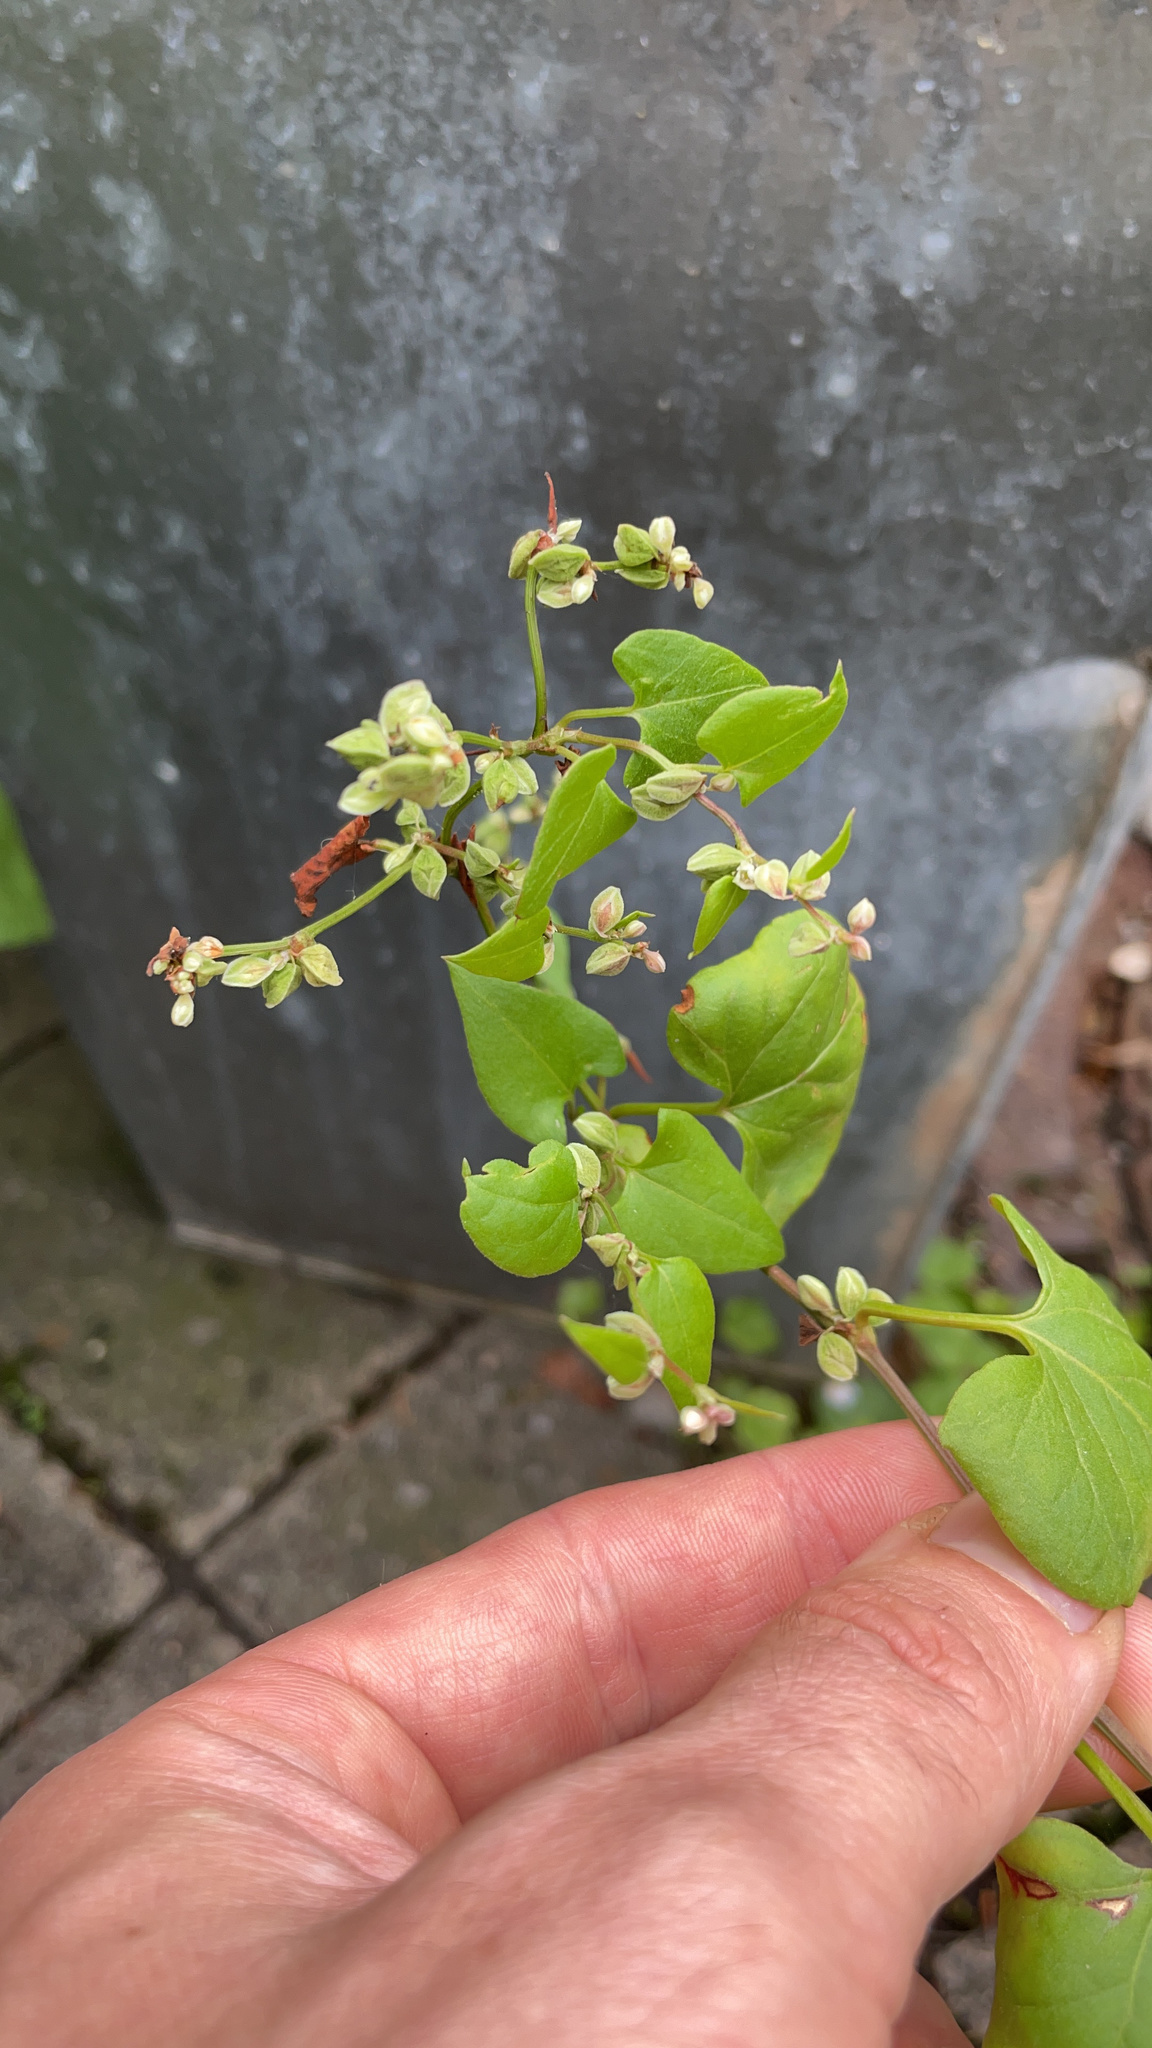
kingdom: Plantae
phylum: Tracheophyta
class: Magnoliopsida
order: Caryophyllales
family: Polygonaceae
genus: Fallopia
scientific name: Fallopia convolvulus
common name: Black bindweed
